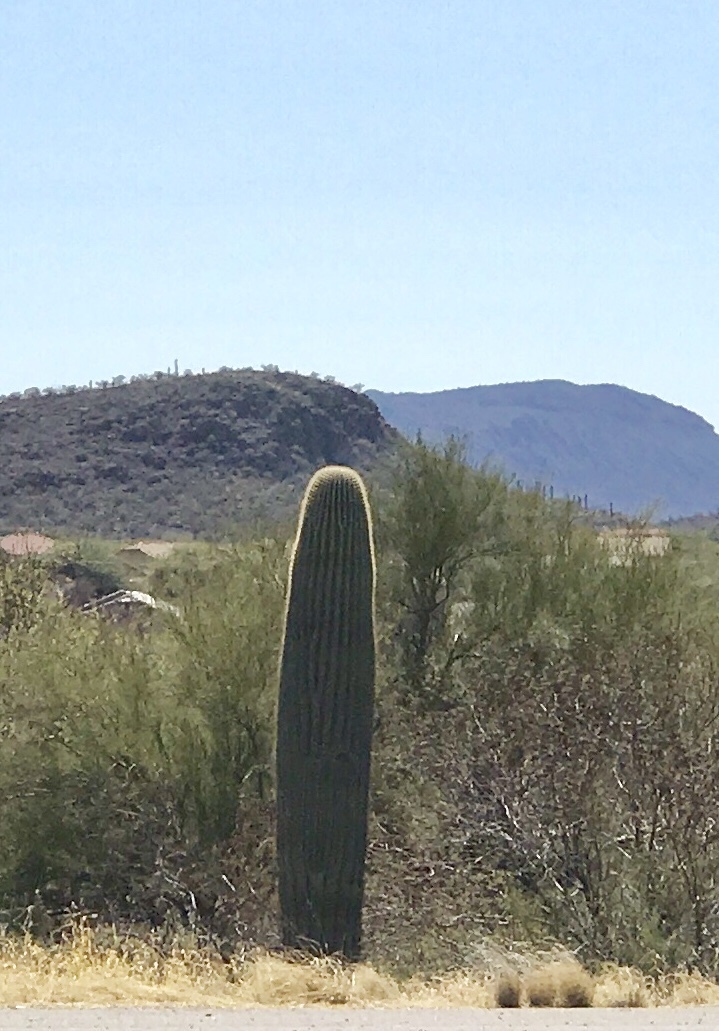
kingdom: Plantae
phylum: Tracheophyta
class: Magnoliopsida
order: Caryophyllales
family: Cactaceae
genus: Carnegiea
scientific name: Carnegiea gigantea
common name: Saguaro
